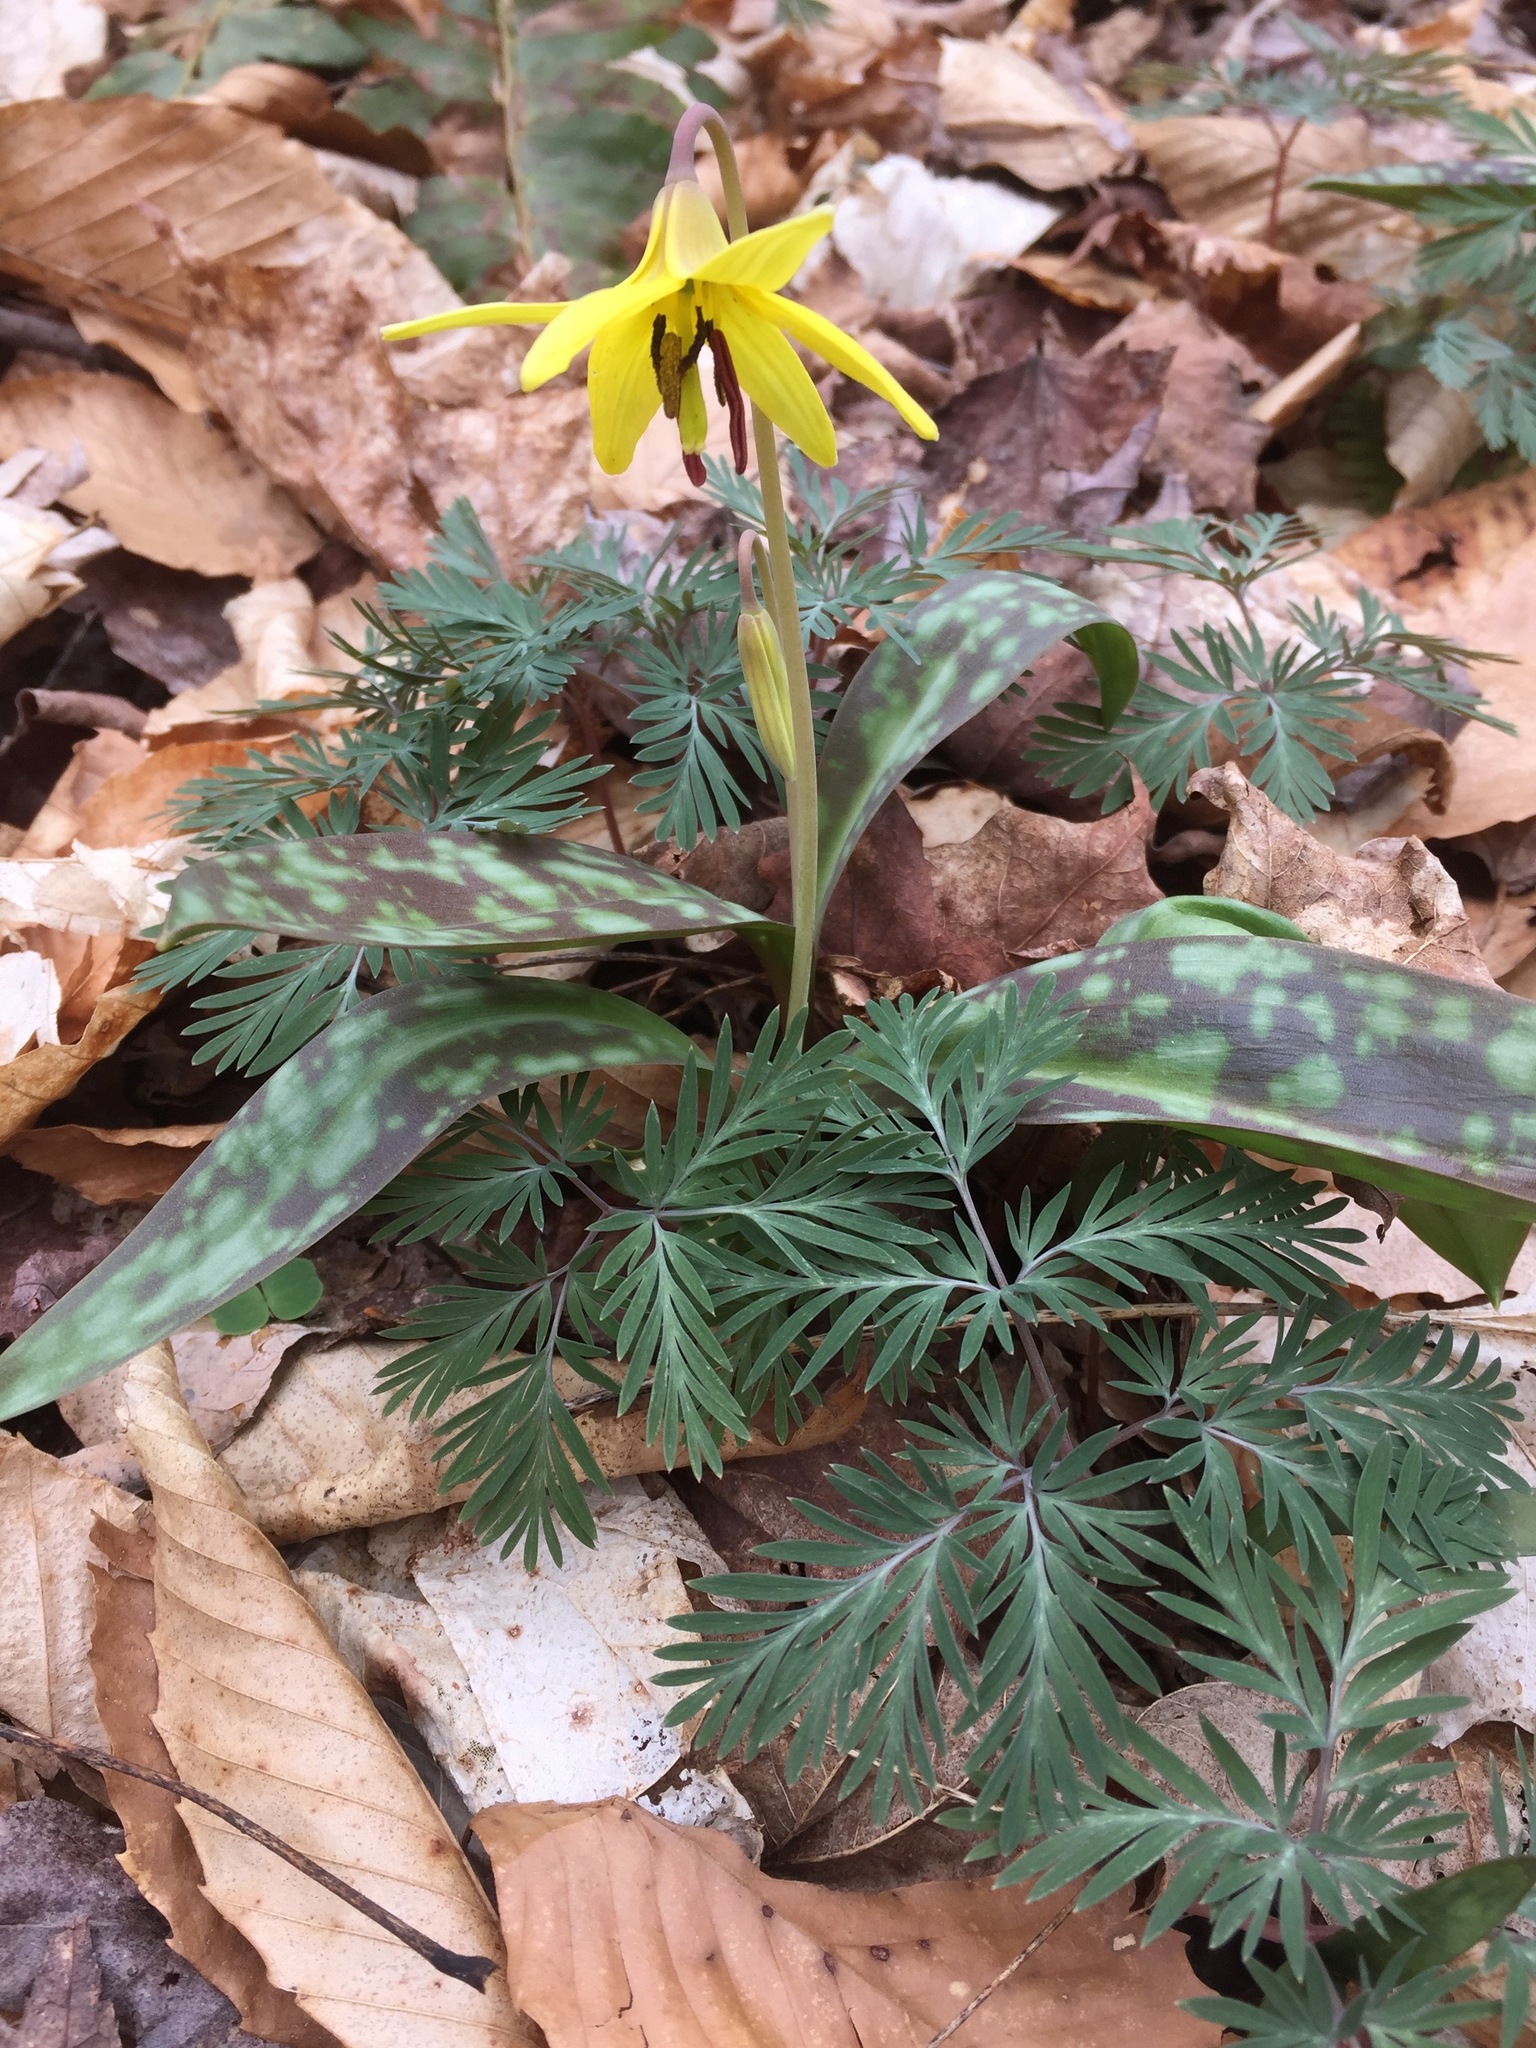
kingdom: Plantae
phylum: Tracheophyta
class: Liliopsida
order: Liliales
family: Liliaceae
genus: Erythronium
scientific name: Erythronium americanum
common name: Yellow adder's-tongue
